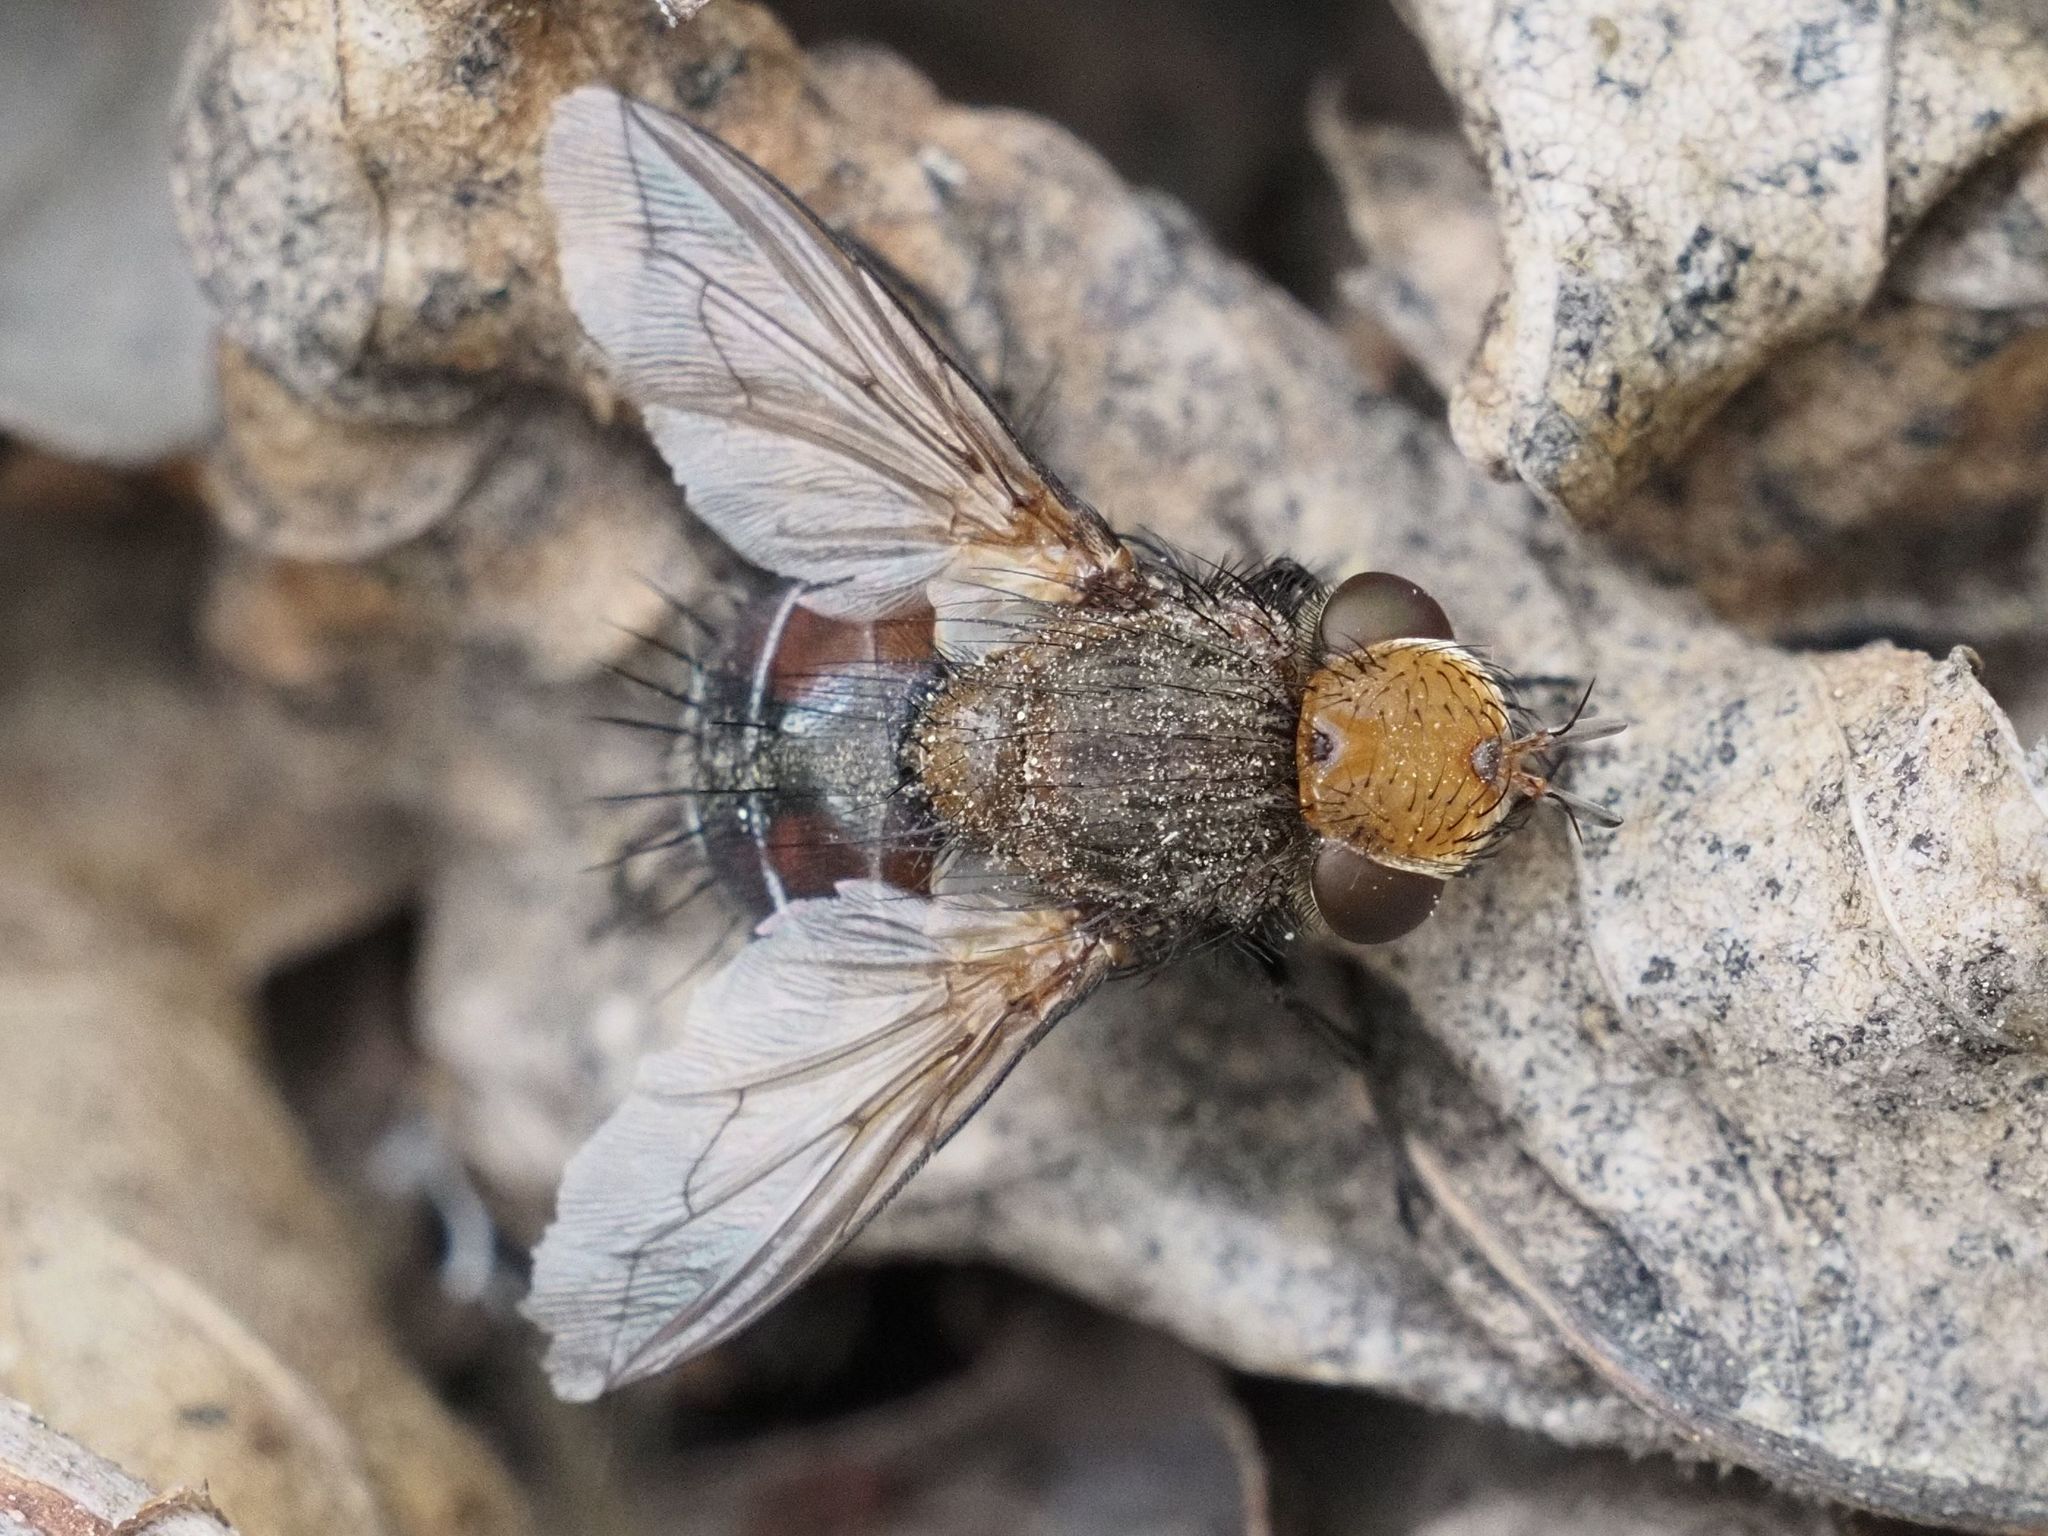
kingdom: Animalia
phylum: Arthropoda
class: Insecta
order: Diptera
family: Tachinidae
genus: Gonia
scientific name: Gonia picea
